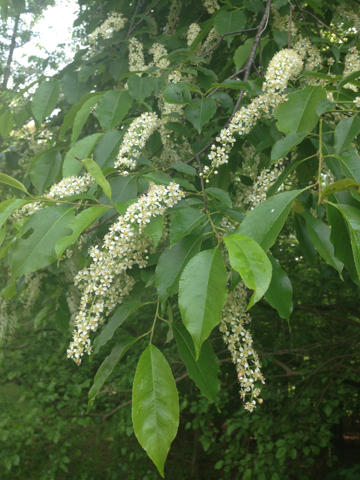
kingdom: Plantae
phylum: Tracheophyta
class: Magnoliopsida
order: Rosales
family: Rosaceae
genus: Prunus
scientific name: Prunus serotina
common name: Black cherry
